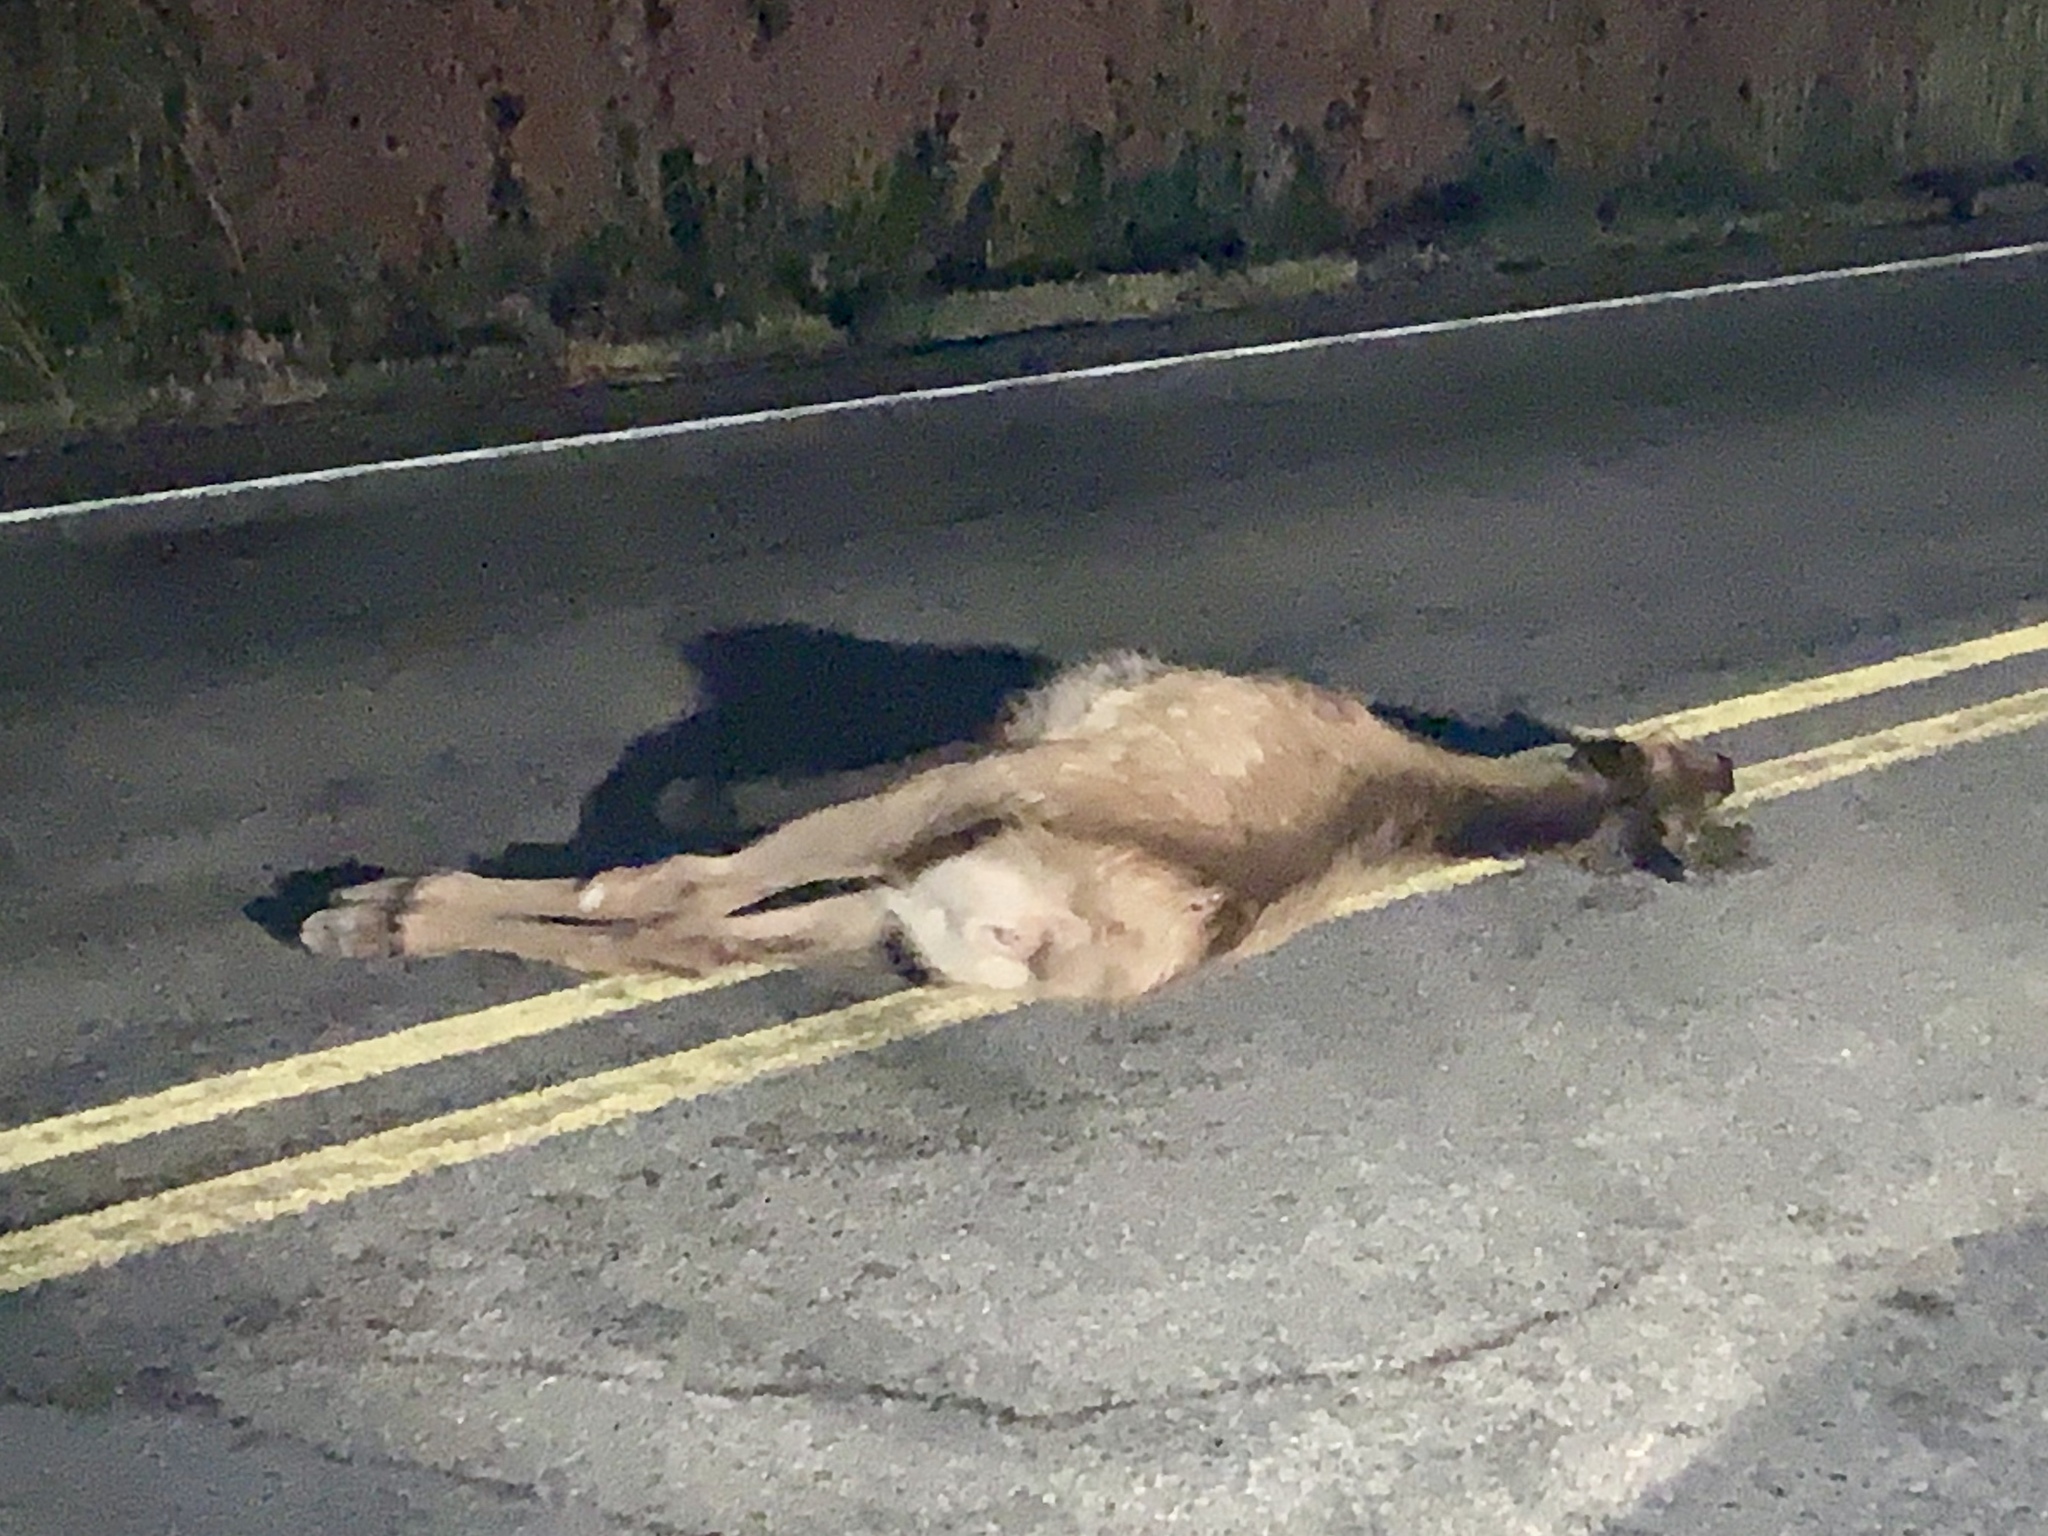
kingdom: Animalia
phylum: Chordata
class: Mammalia
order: Artiodactyla
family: Cervidae
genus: Cervus
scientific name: Cervus elaphus
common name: Red deer
